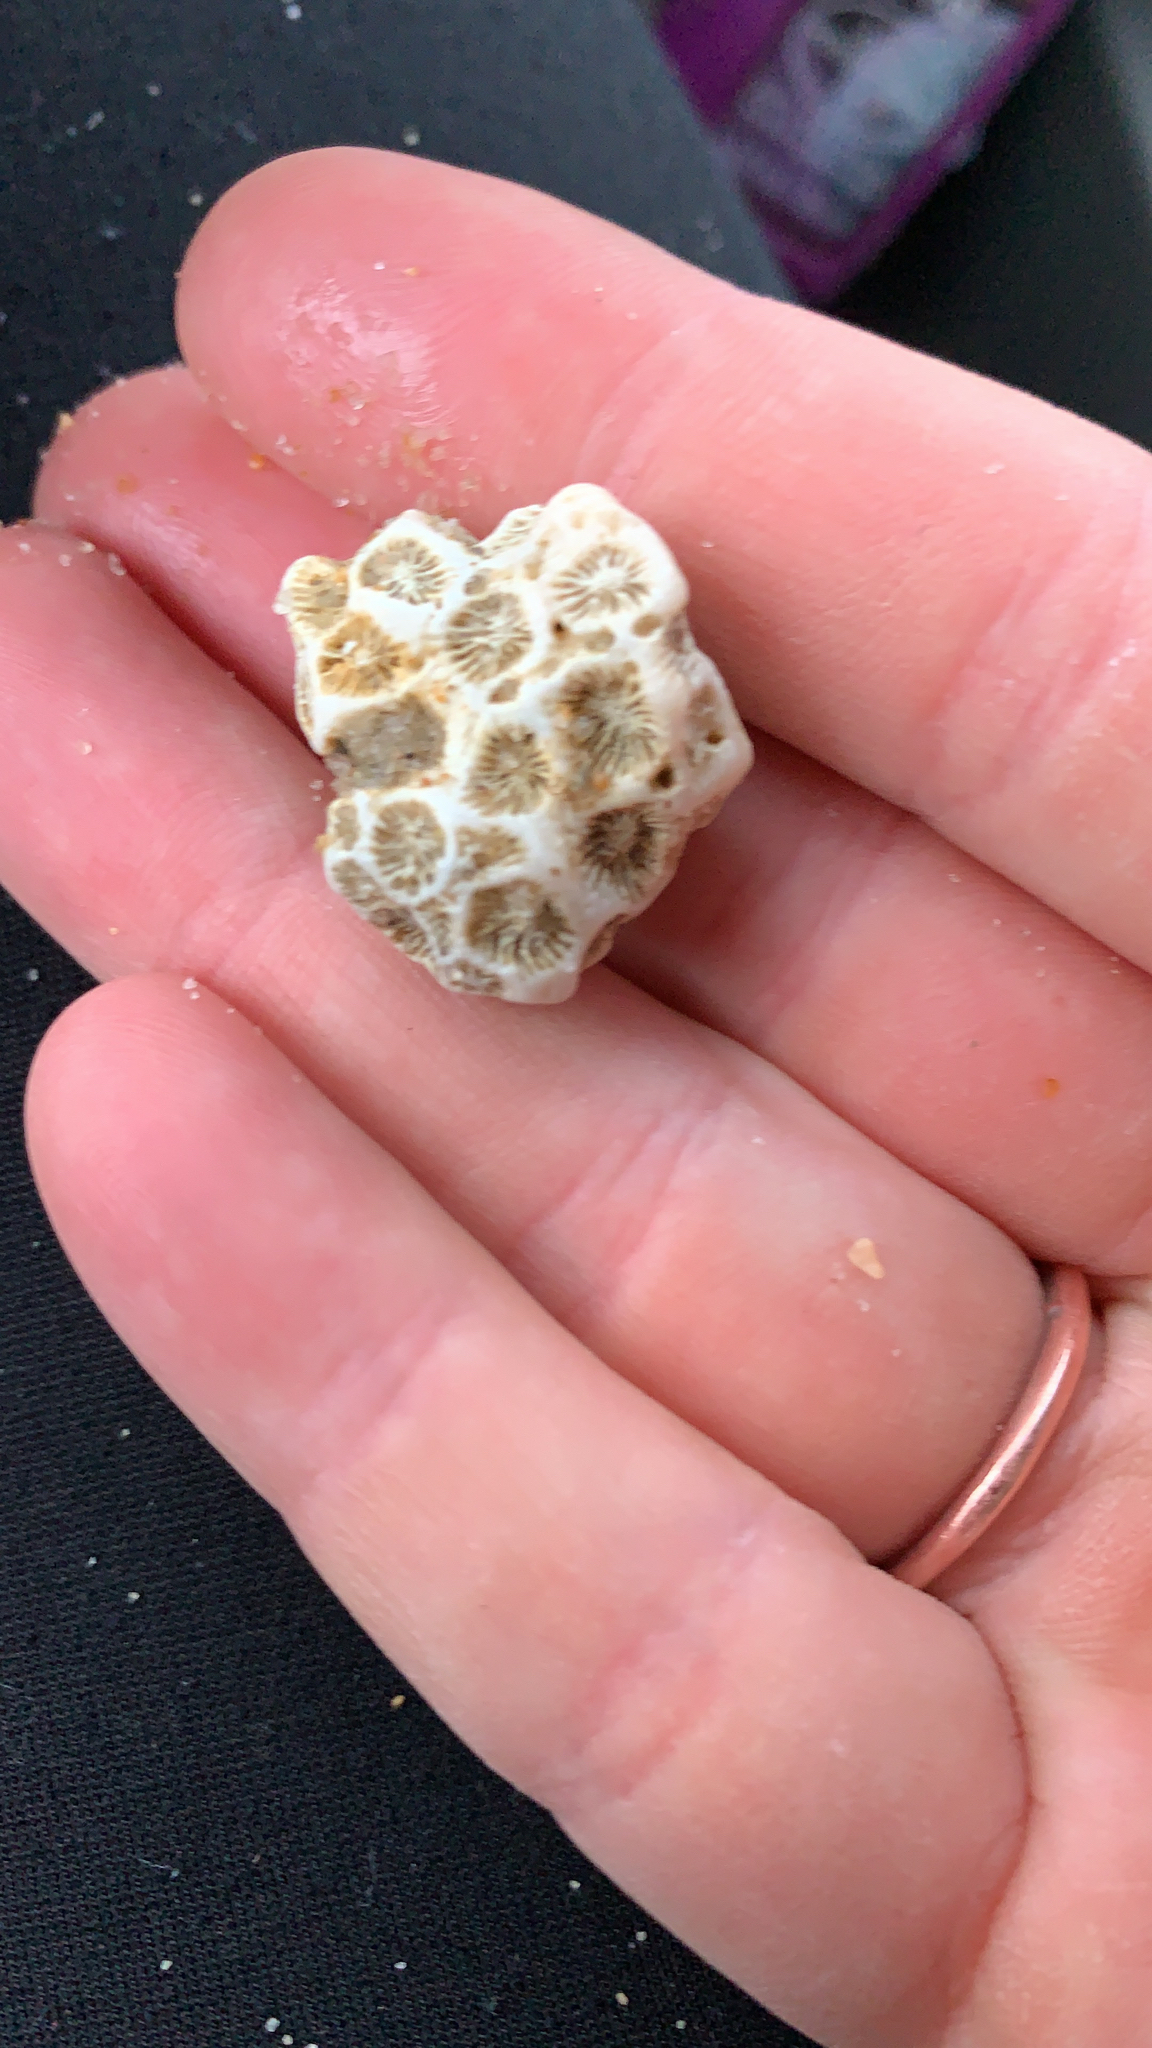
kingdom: Animalia
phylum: Cnidaria
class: Anthozoa
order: Scleractinia
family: Astrangiidae
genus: Astrangia
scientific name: Astrangia poculata
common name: Northern star coral
